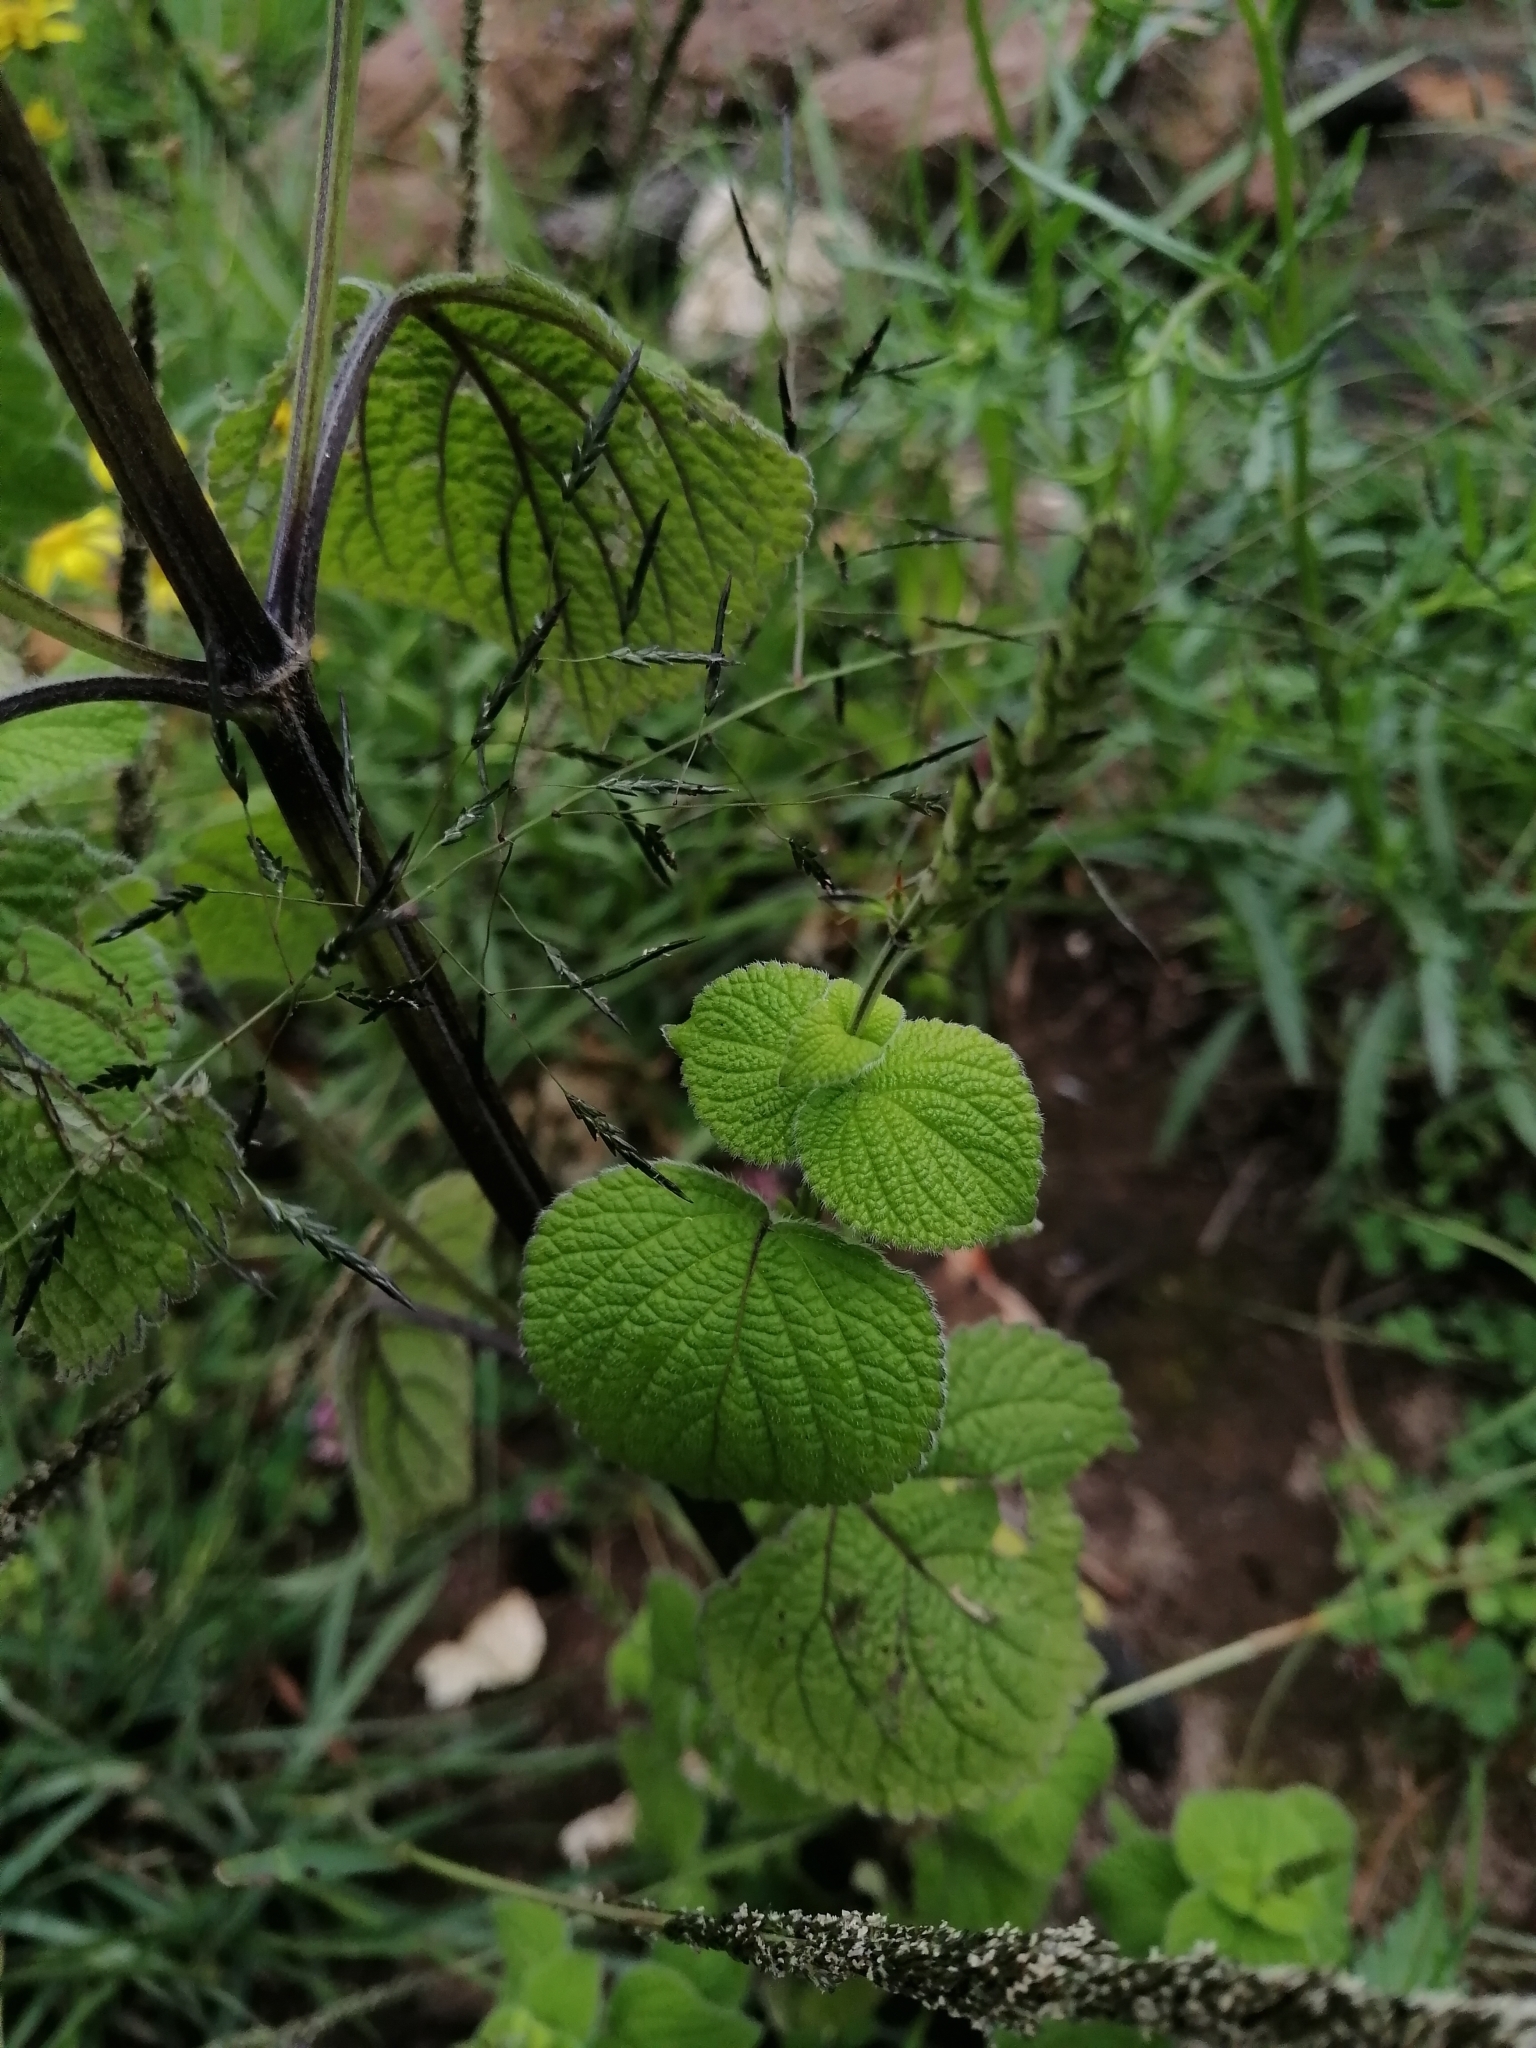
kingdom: Plantae
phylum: Tracheophyta
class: Magnoliopsida
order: Lamiales
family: Lamiaceae
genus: Salvia
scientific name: Salvia tiliifolia
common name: Lindenleaf sage
